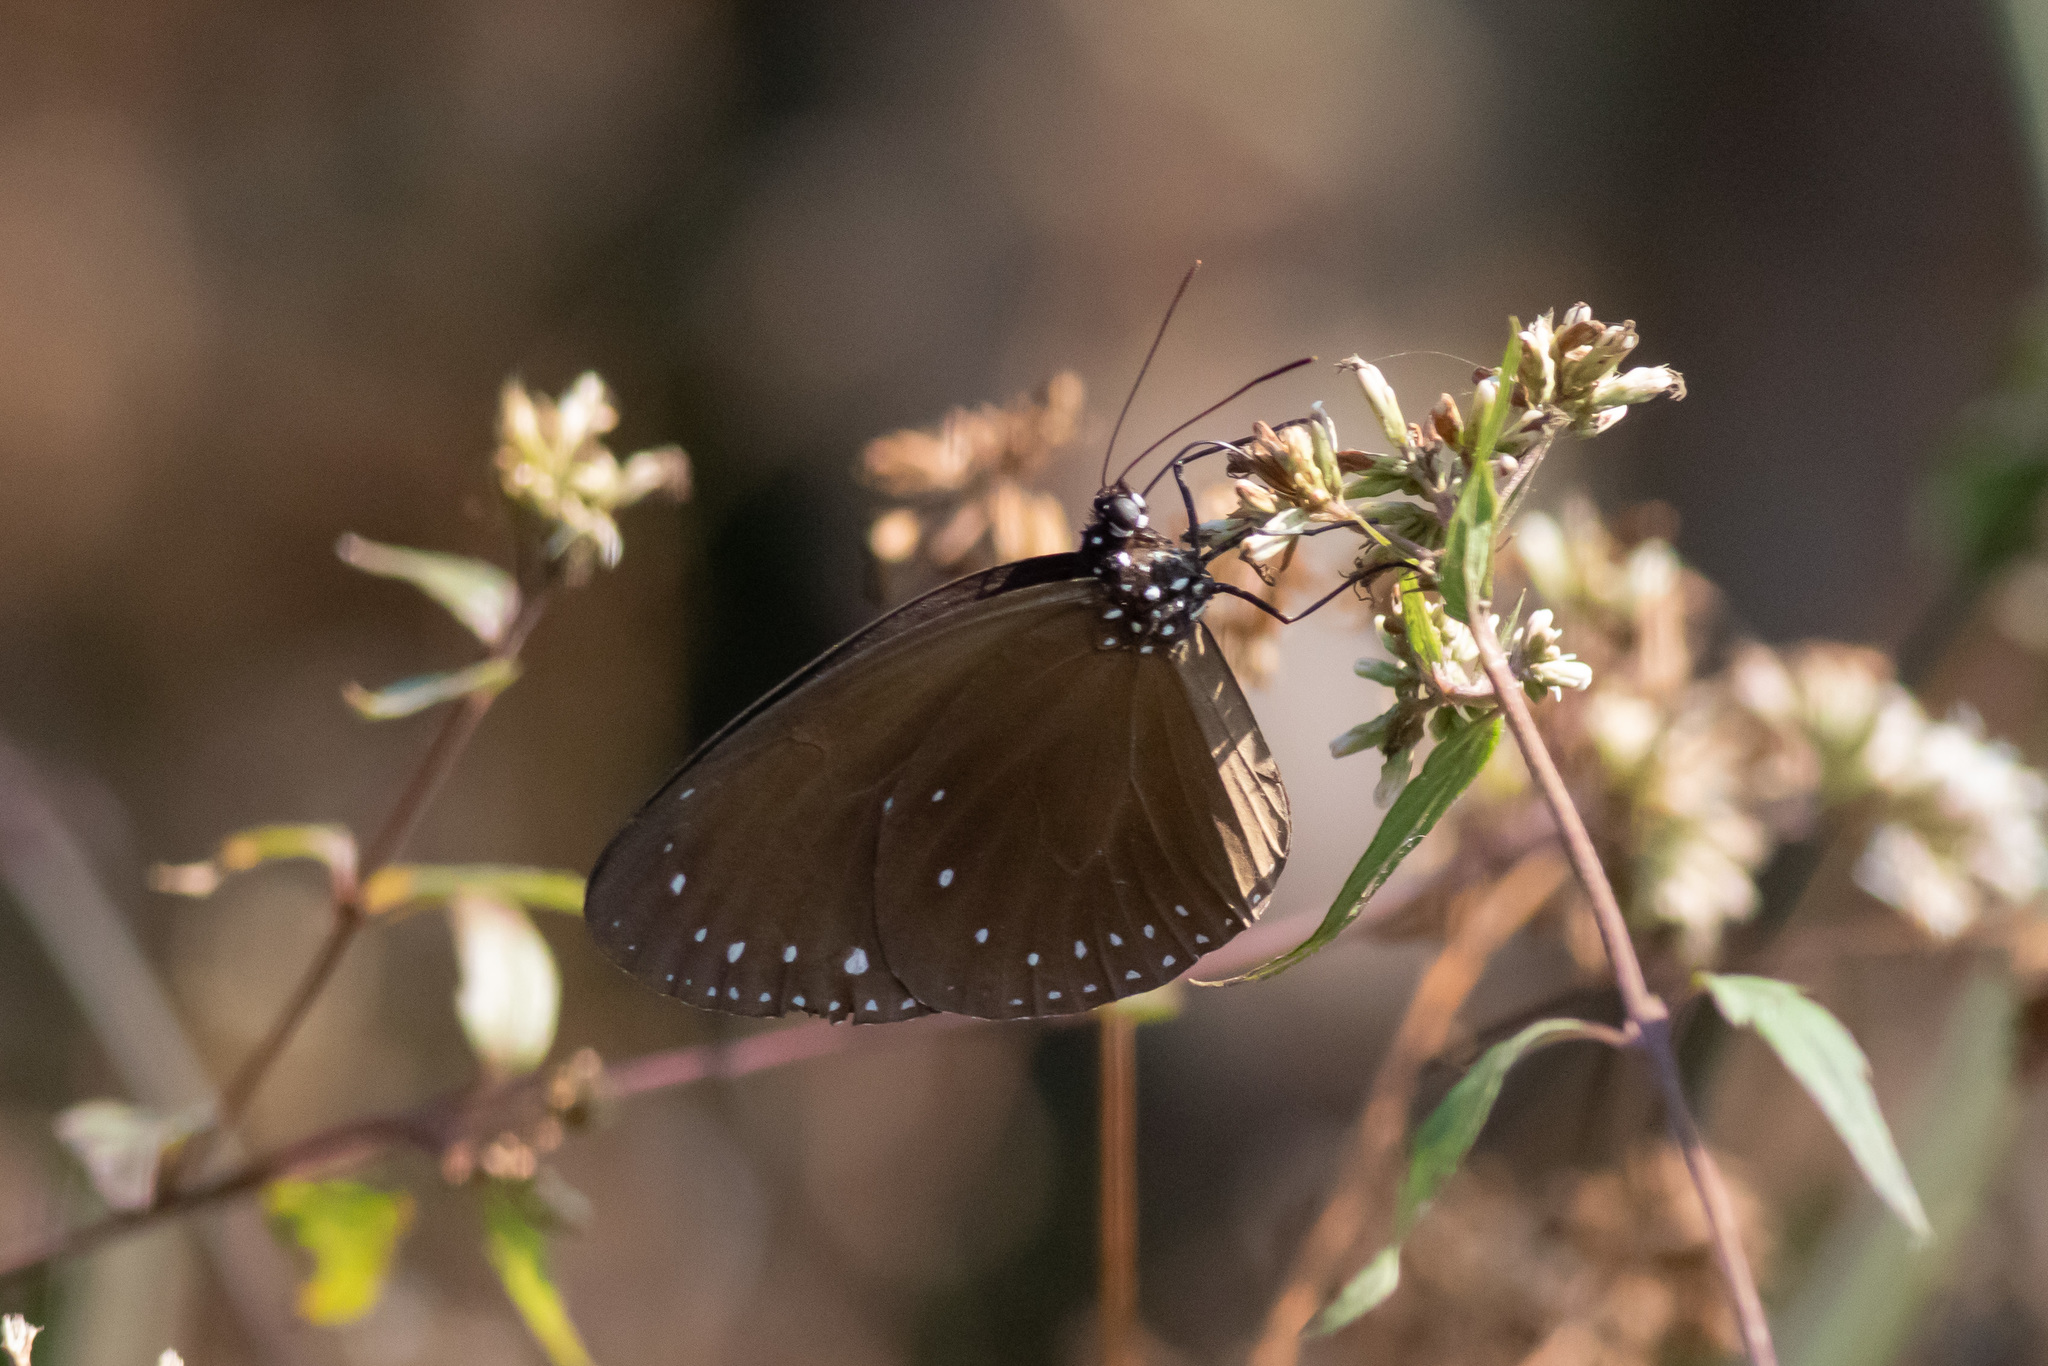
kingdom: Animalia
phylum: Arthropoda
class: Insecta
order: Lepidoptera
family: Nymphalidae
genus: Euploea
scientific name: Euploea tulliolus
